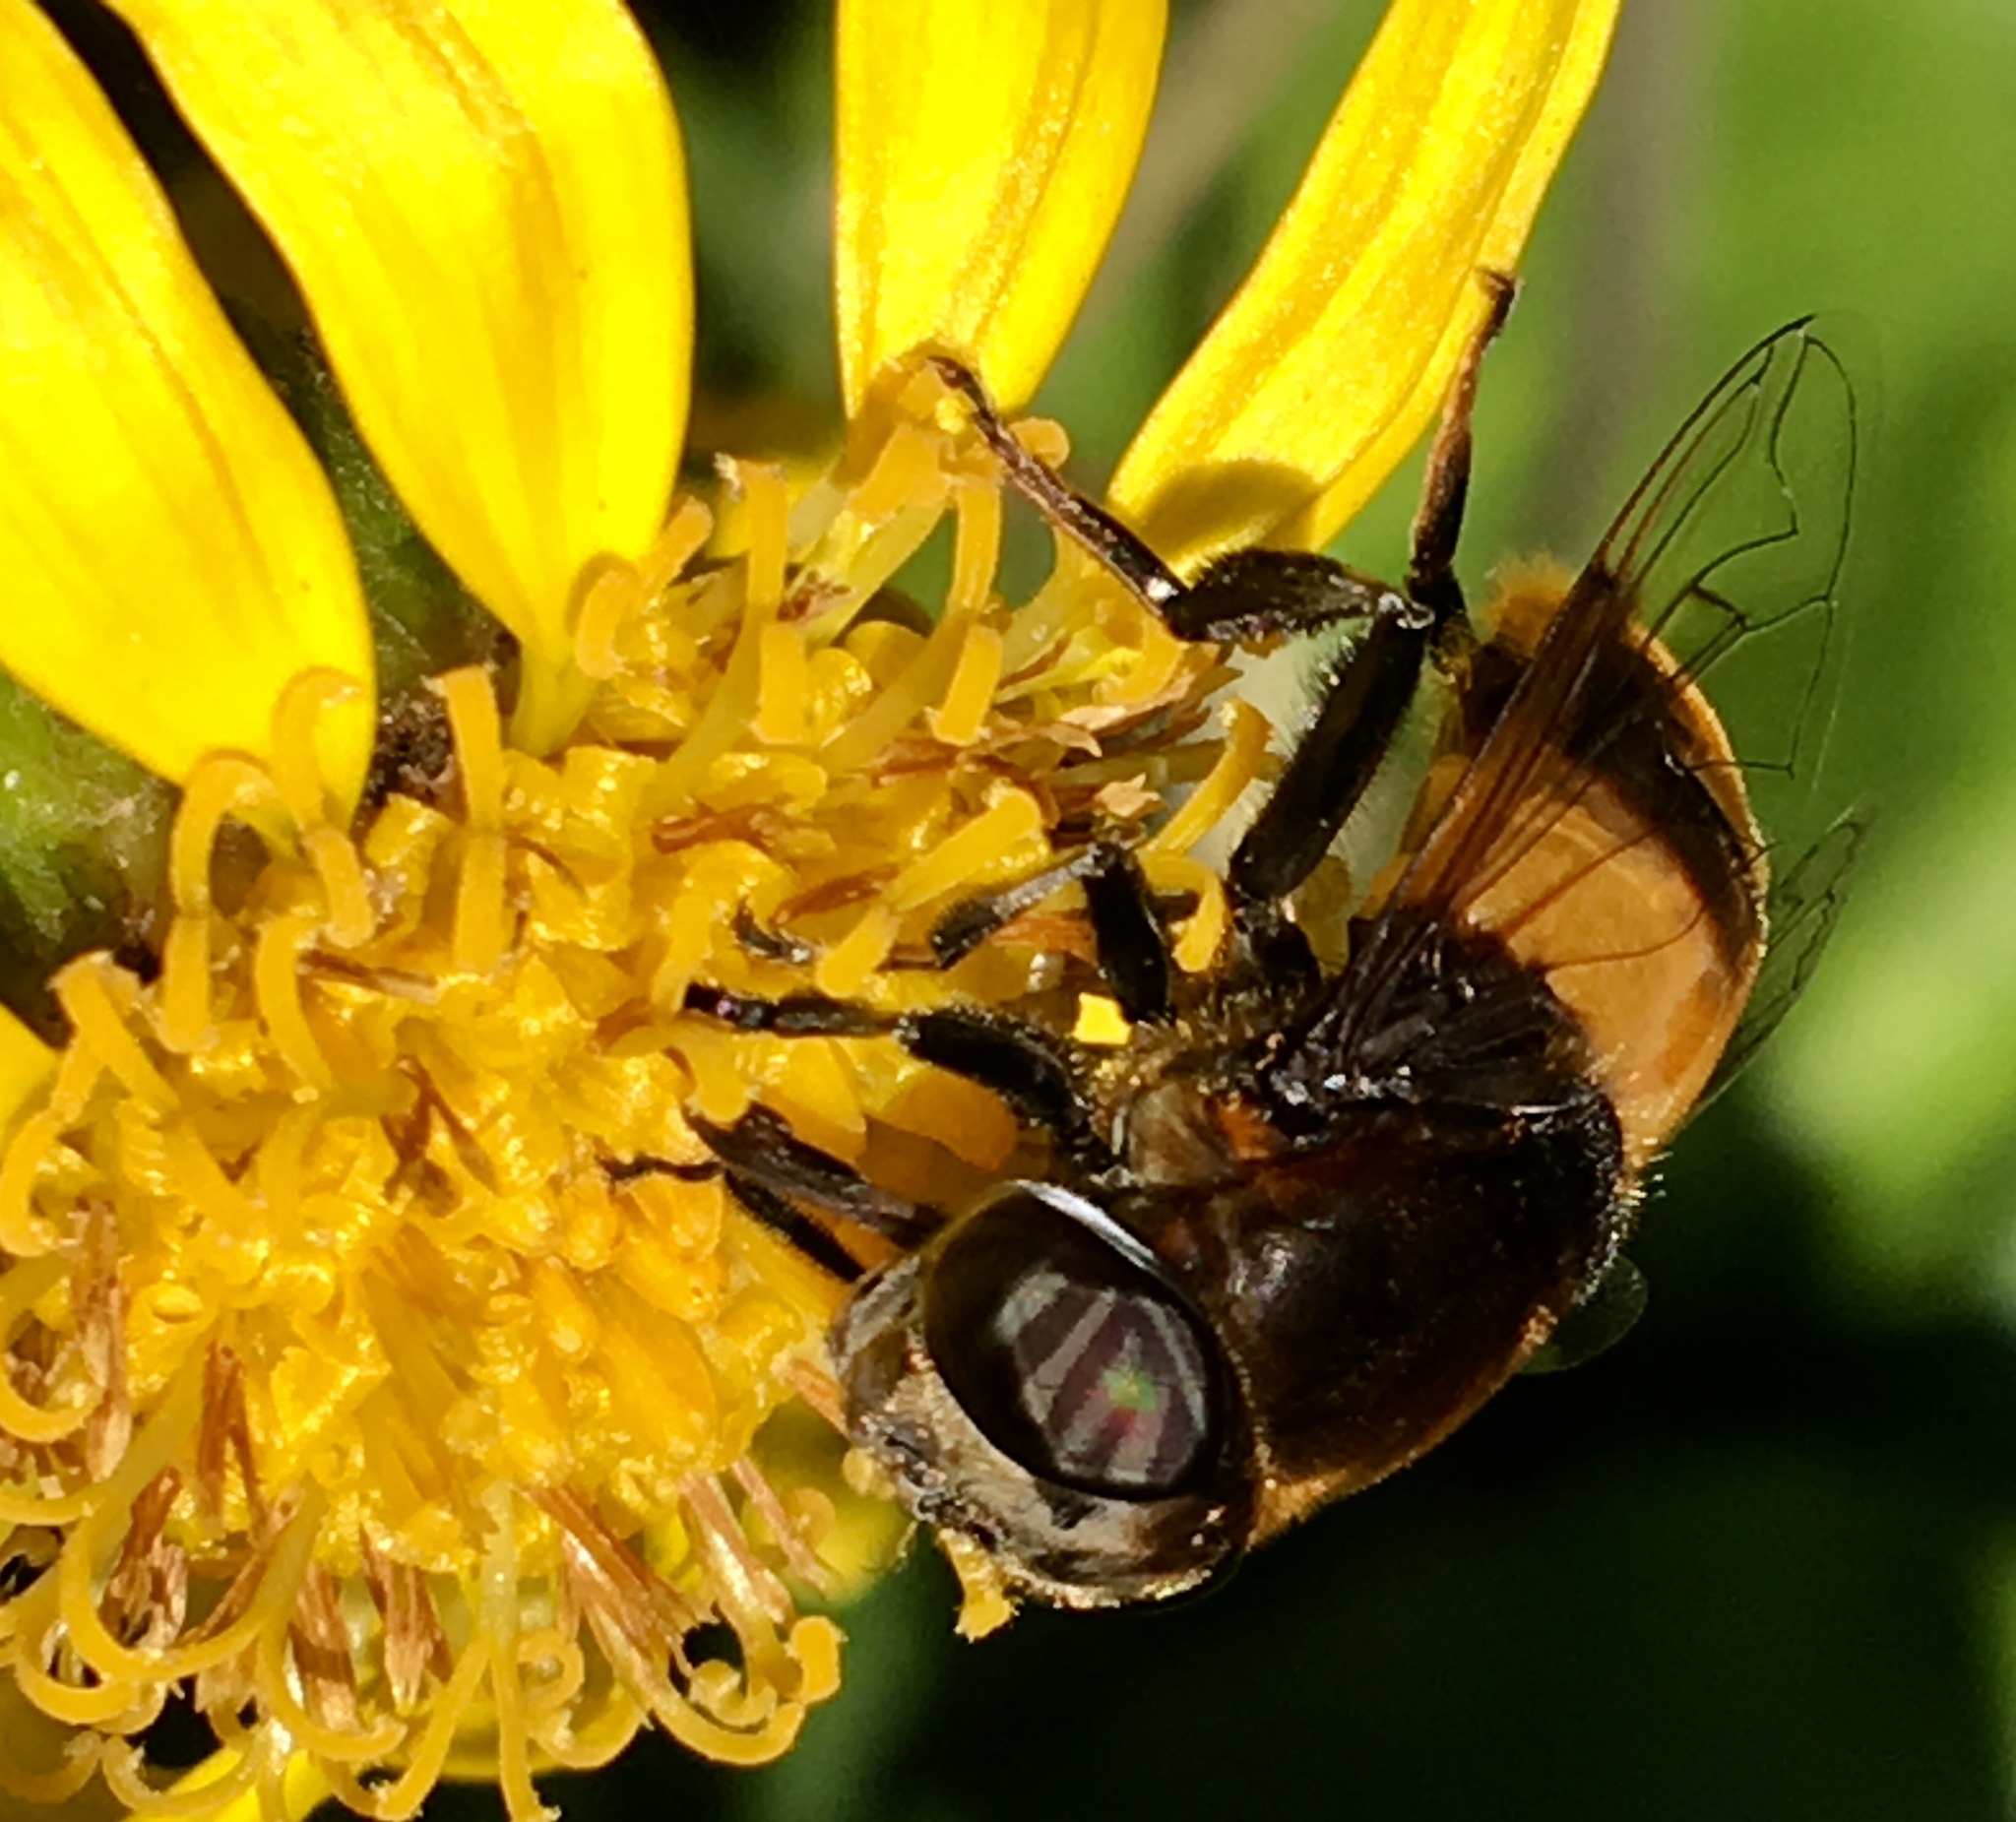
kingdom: Animalia
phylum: Arthropoda
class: Insecta
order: Diptera
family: Syrphidae
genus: Phytomia
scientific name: Phytomia zonata
